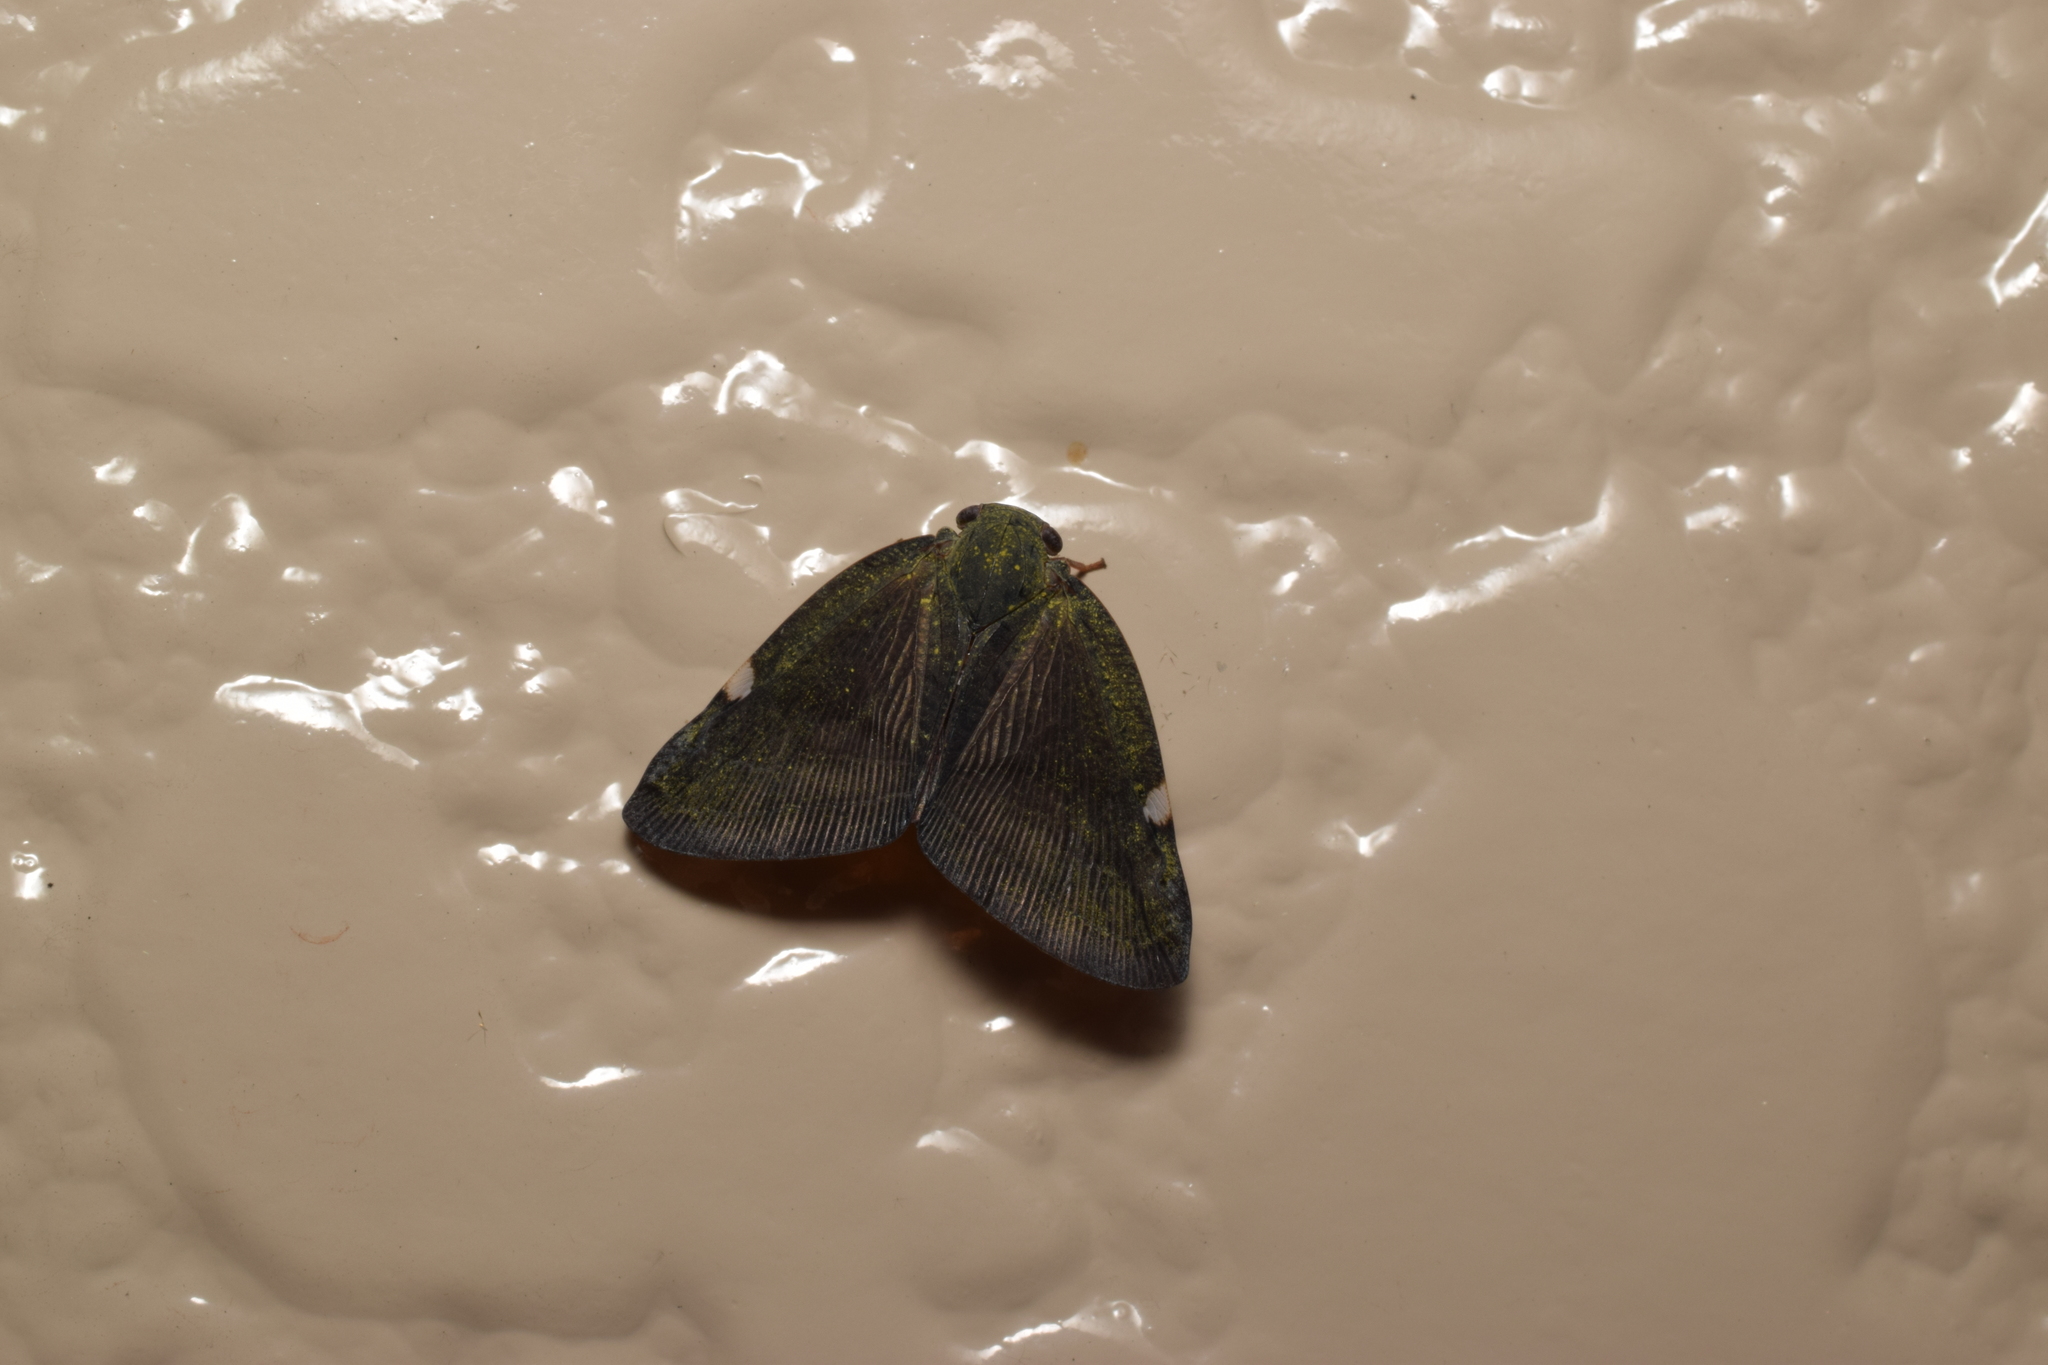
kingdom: Animalia
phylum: Arthropoda
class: Insecta
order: Hemiptera
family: Ricaniidae
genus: Pochazia
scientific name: Pochazia albomaculata
